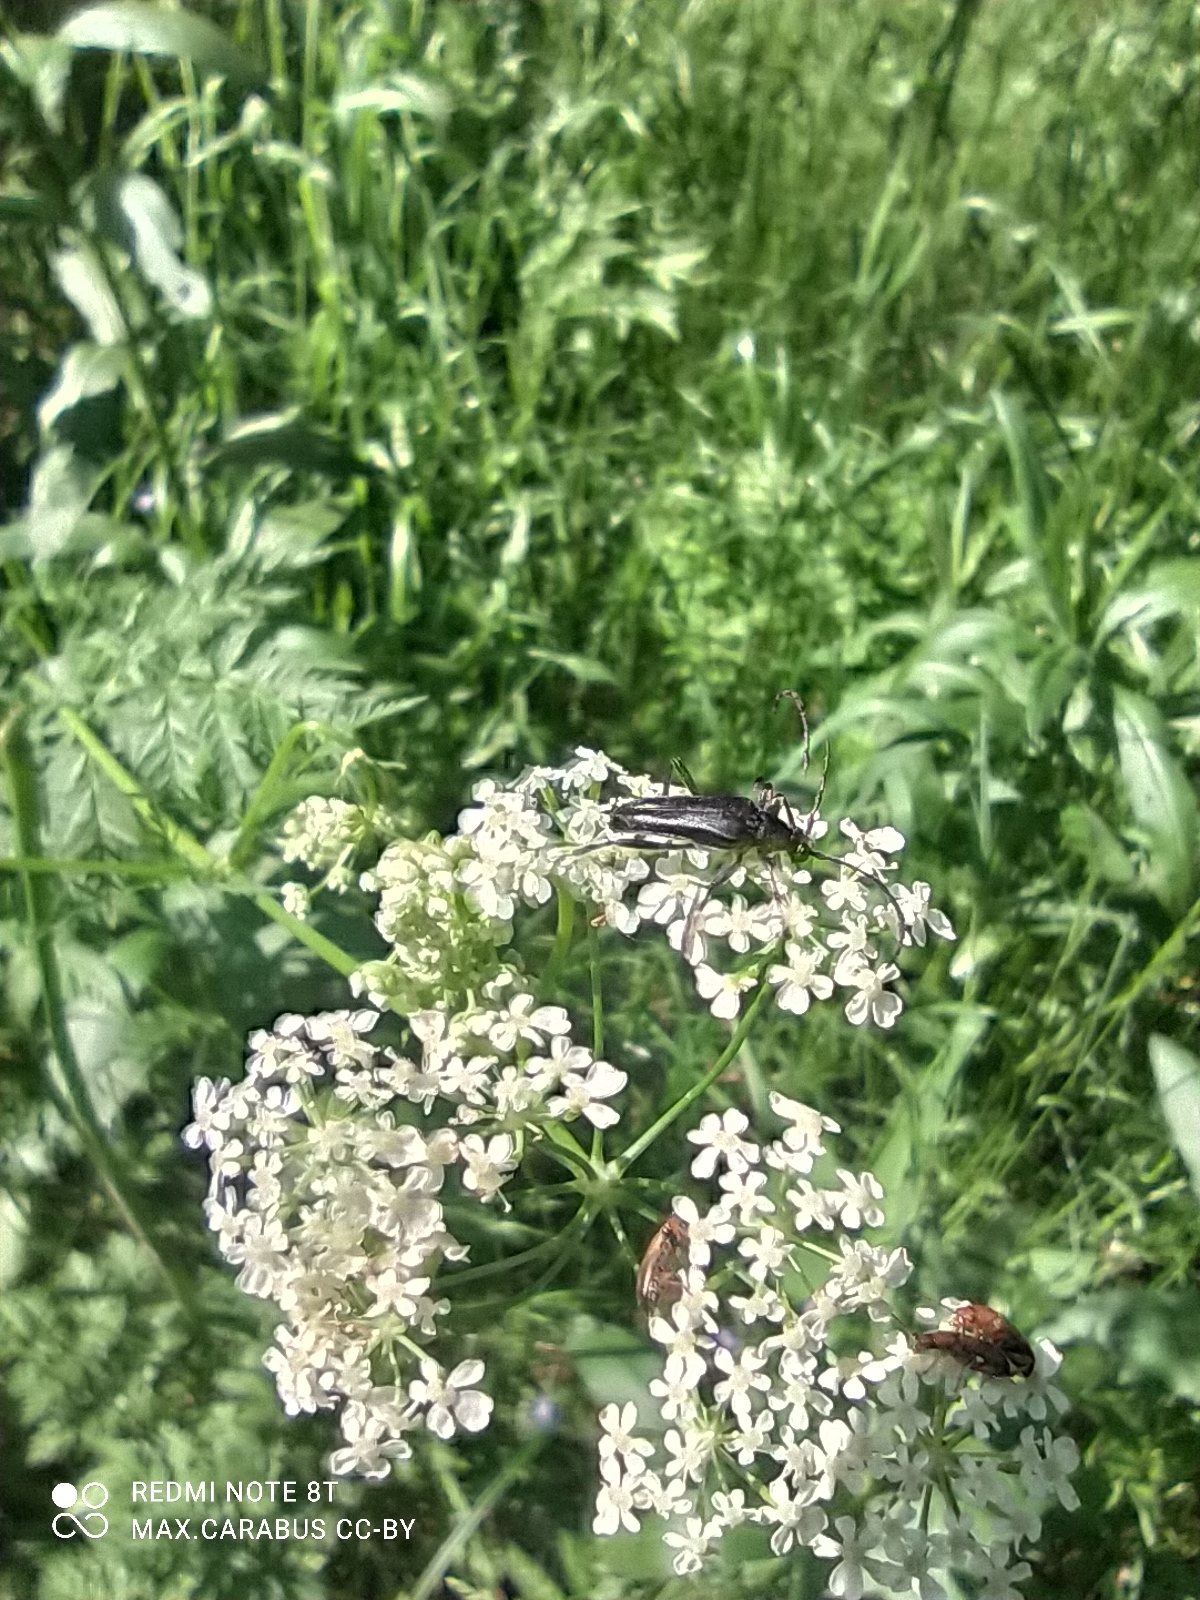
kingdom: Animalia
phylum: Arthropoda
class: Insecta
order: Coleoptera
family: Cerambycidae
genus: Leptura
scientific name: Leptura aethiops
